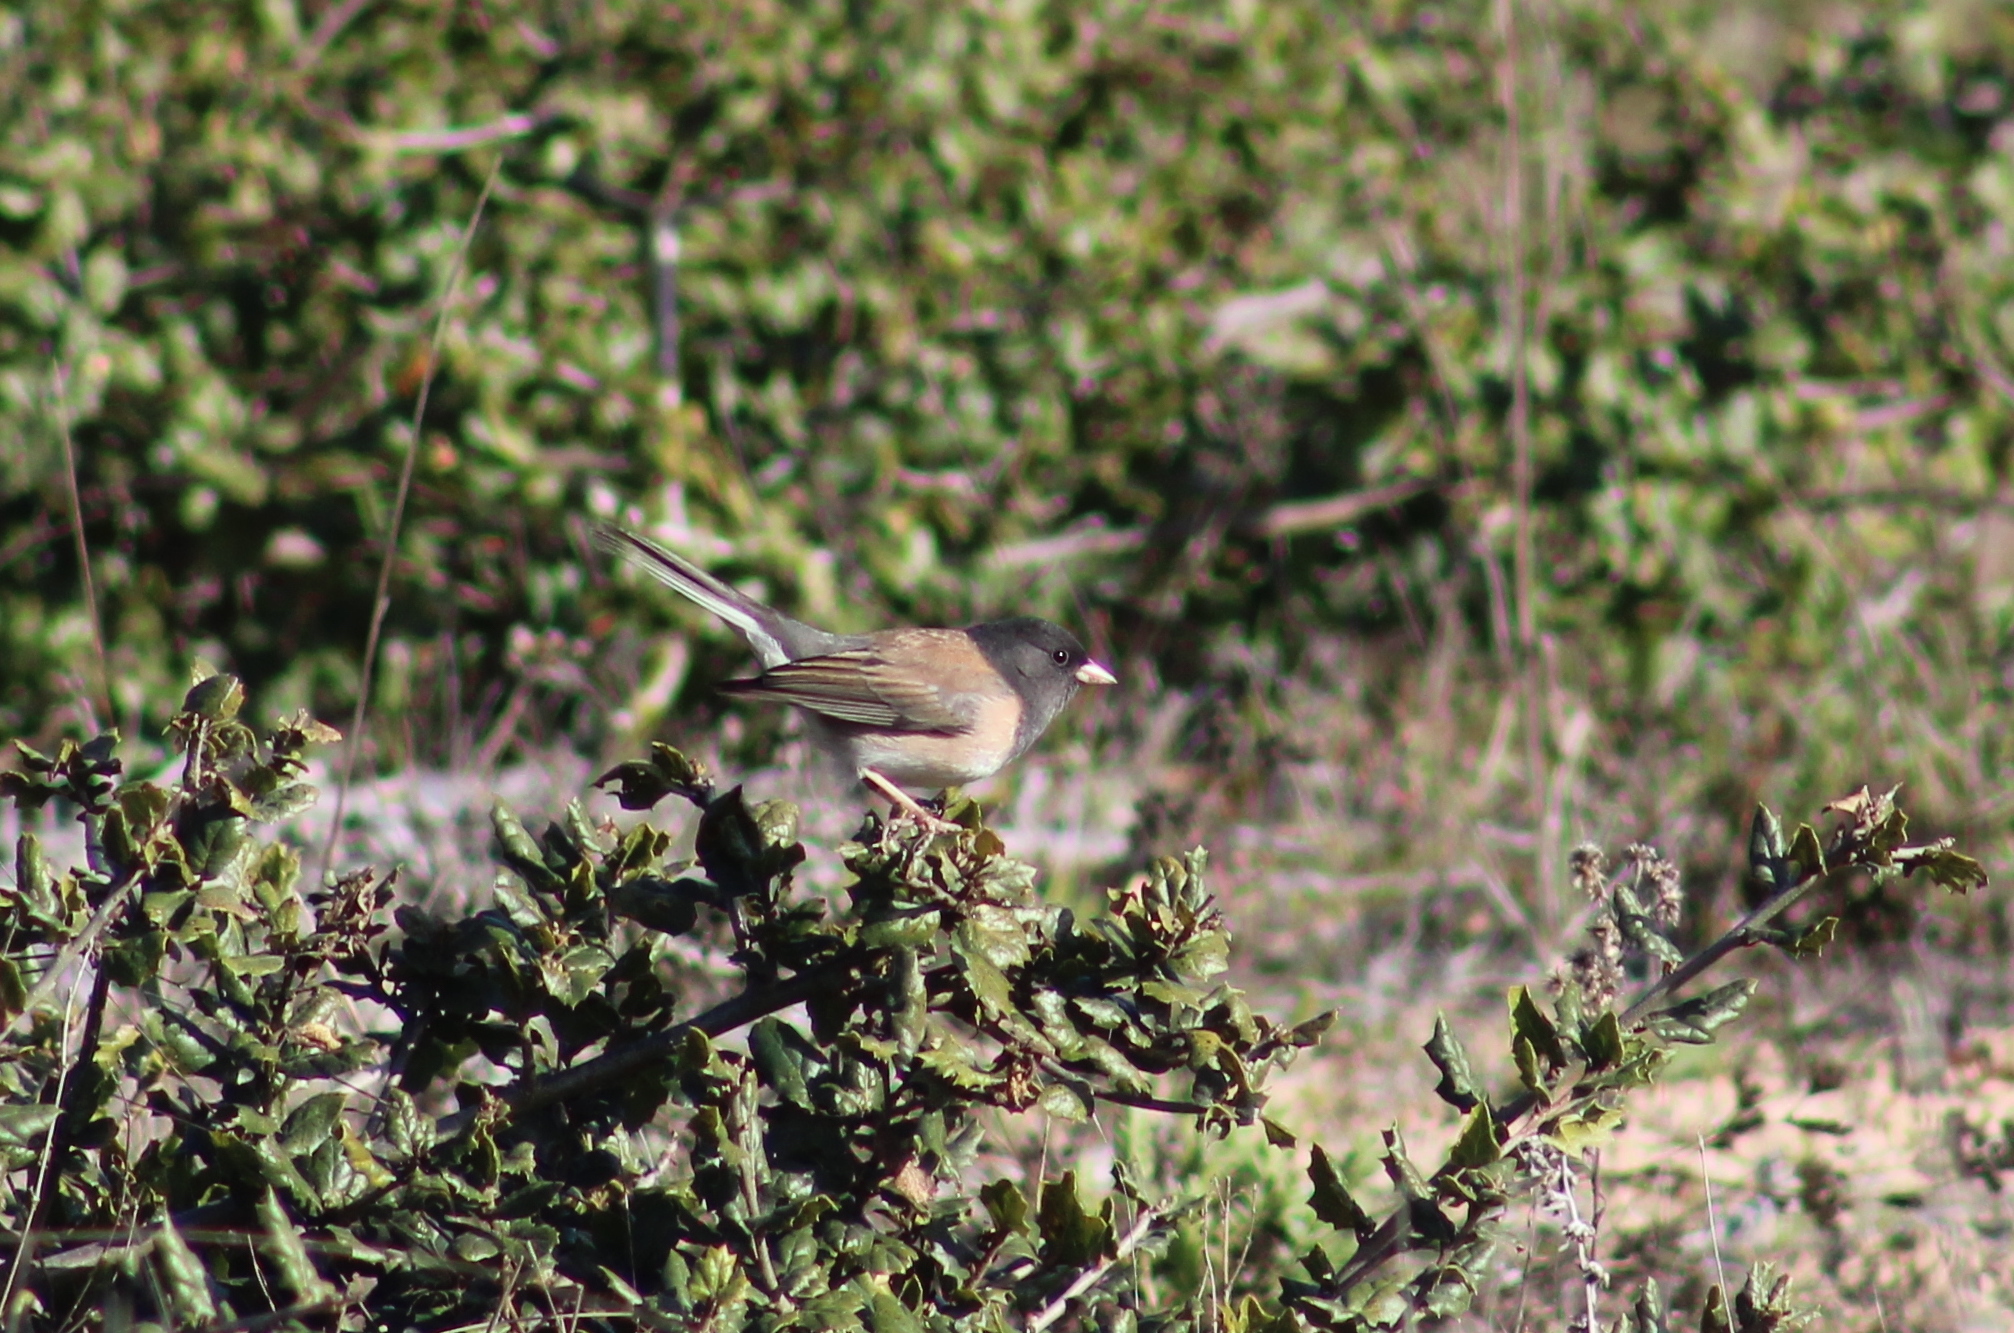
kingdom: Animalia
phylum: Chordata
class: Aves
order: Passeriformes
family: Passerellidae
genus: Junco
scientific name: Junco hyemalis
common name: Dark-eyed junco
